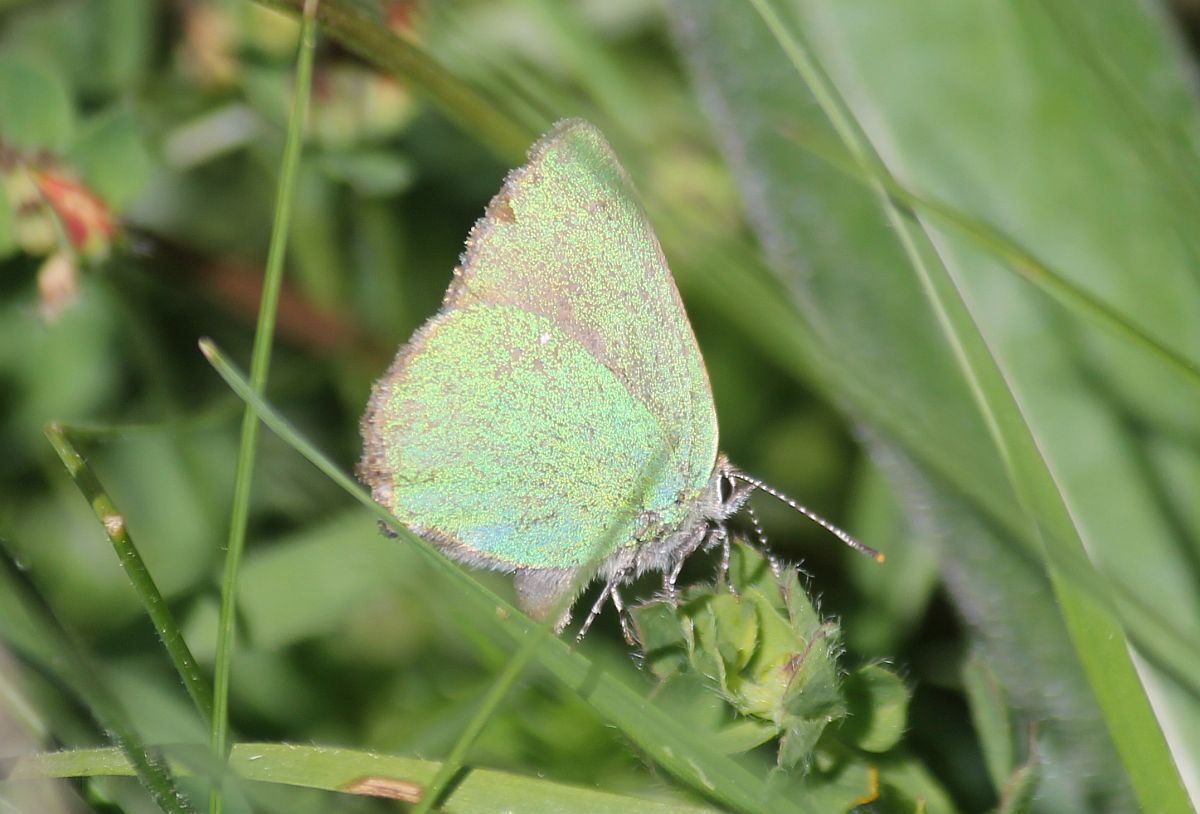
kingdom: Animalia
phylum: Arthropoda
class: Insecta
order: Lepidoptera
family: Lycaenidae
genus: Callophrys
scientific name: Callophrys rubi
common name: Green hairstreak
